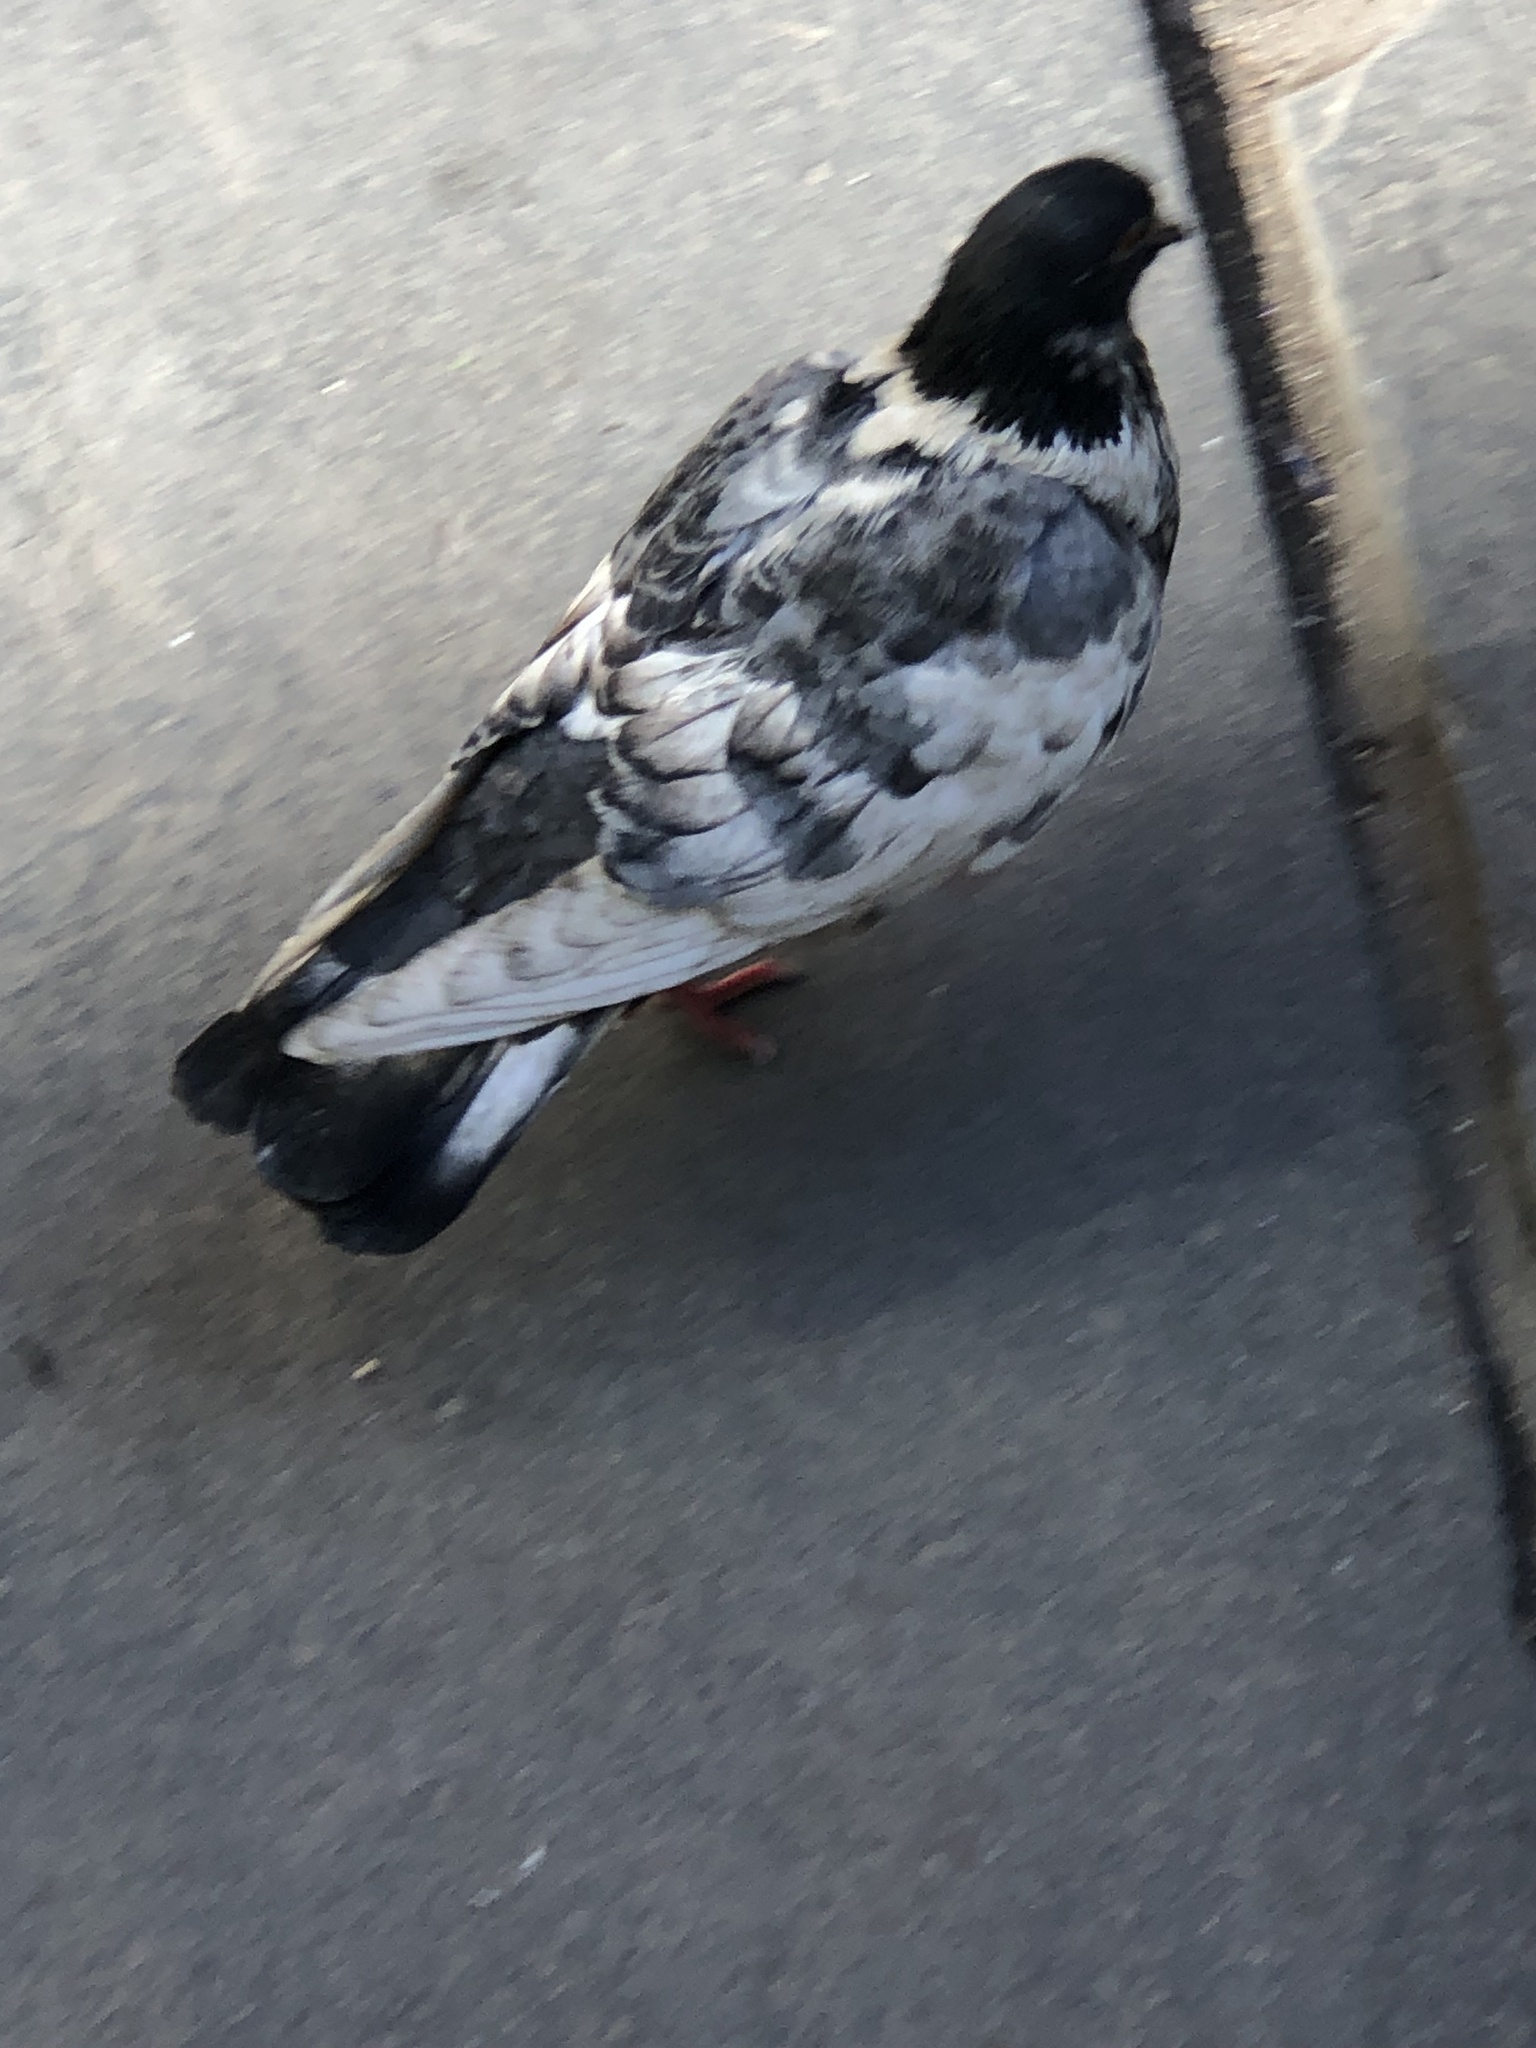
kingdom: Animalia
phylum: Chordata
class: Aves
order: Columbiformes
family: Columbidae
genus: Columba
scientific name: Columba livia
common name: Rock pigeon
